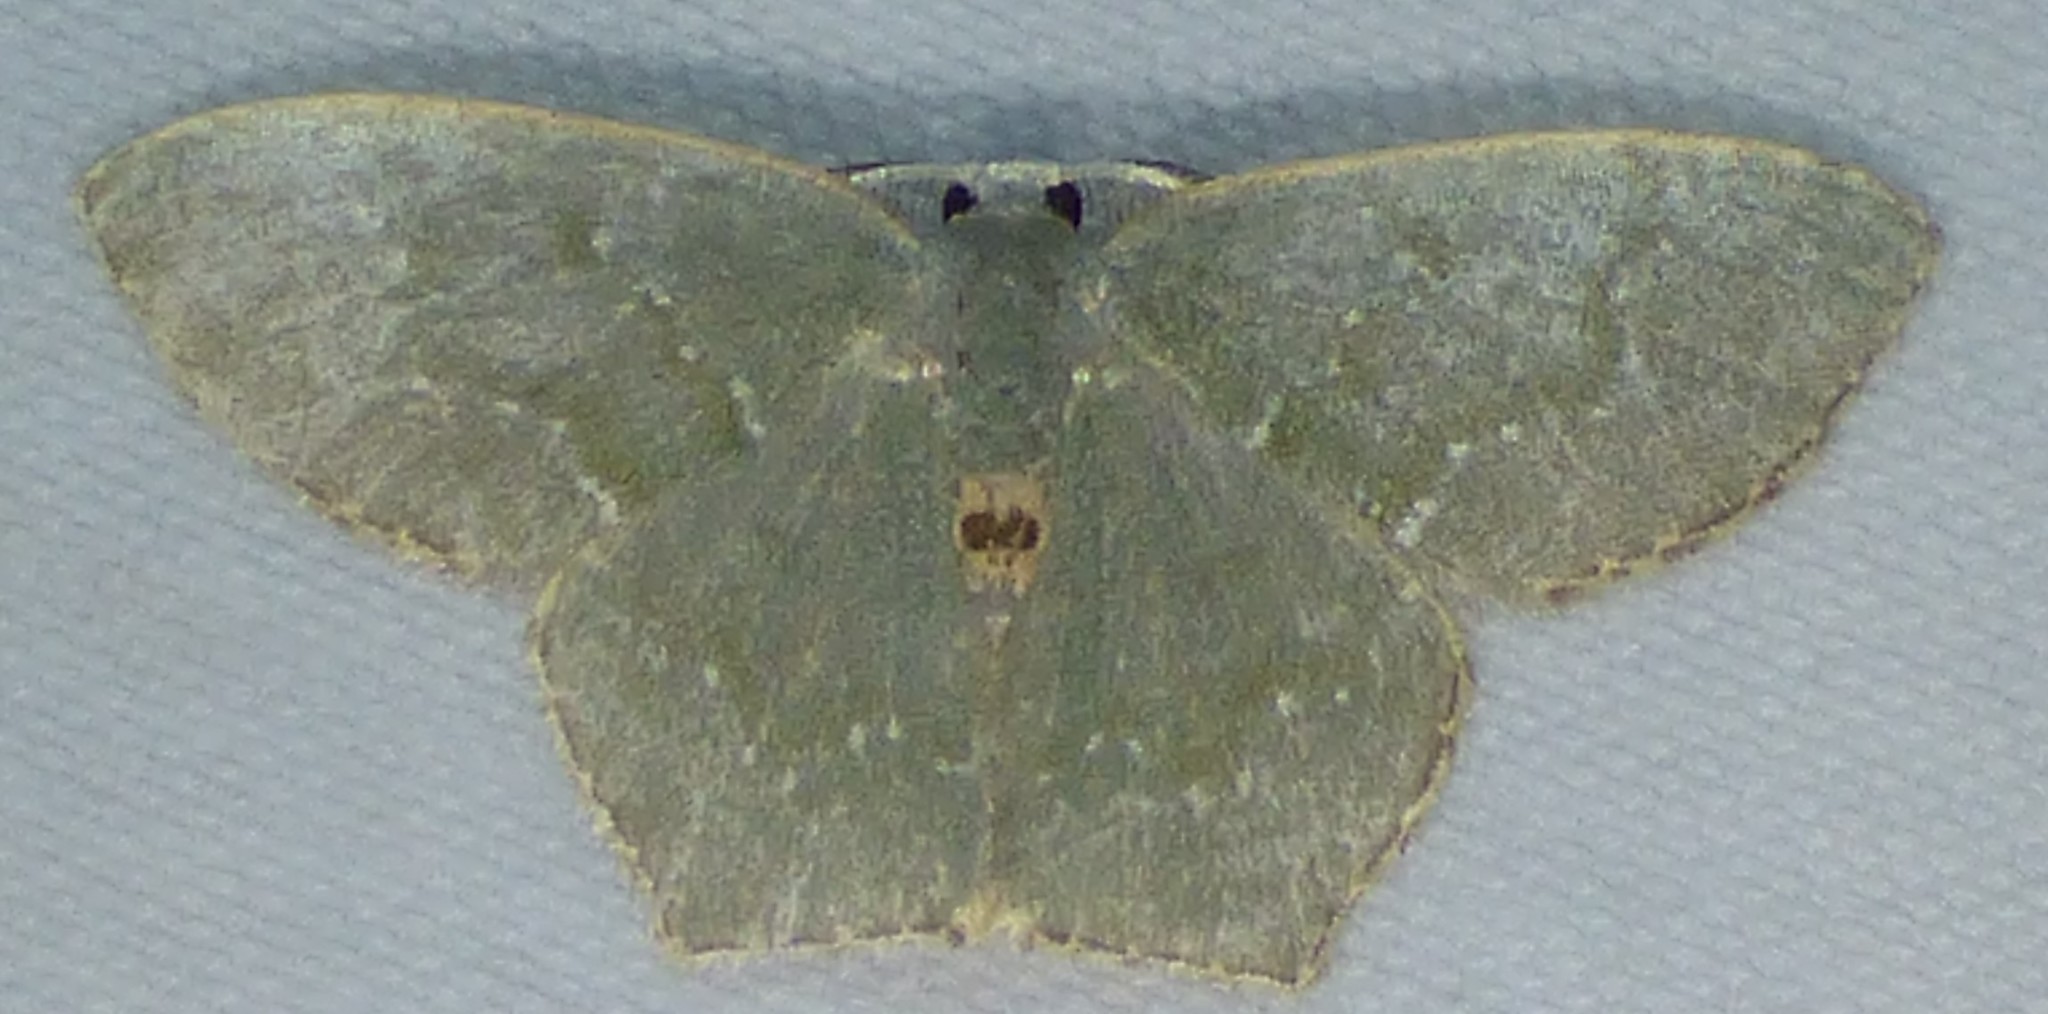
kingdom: Animalia
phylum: Arthropoda
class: Insecta
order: Lepidoptera
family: Geometridae
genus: Chloropteryx
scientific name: Chloropteryx tepperaria
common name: Angle winged emerald moth
